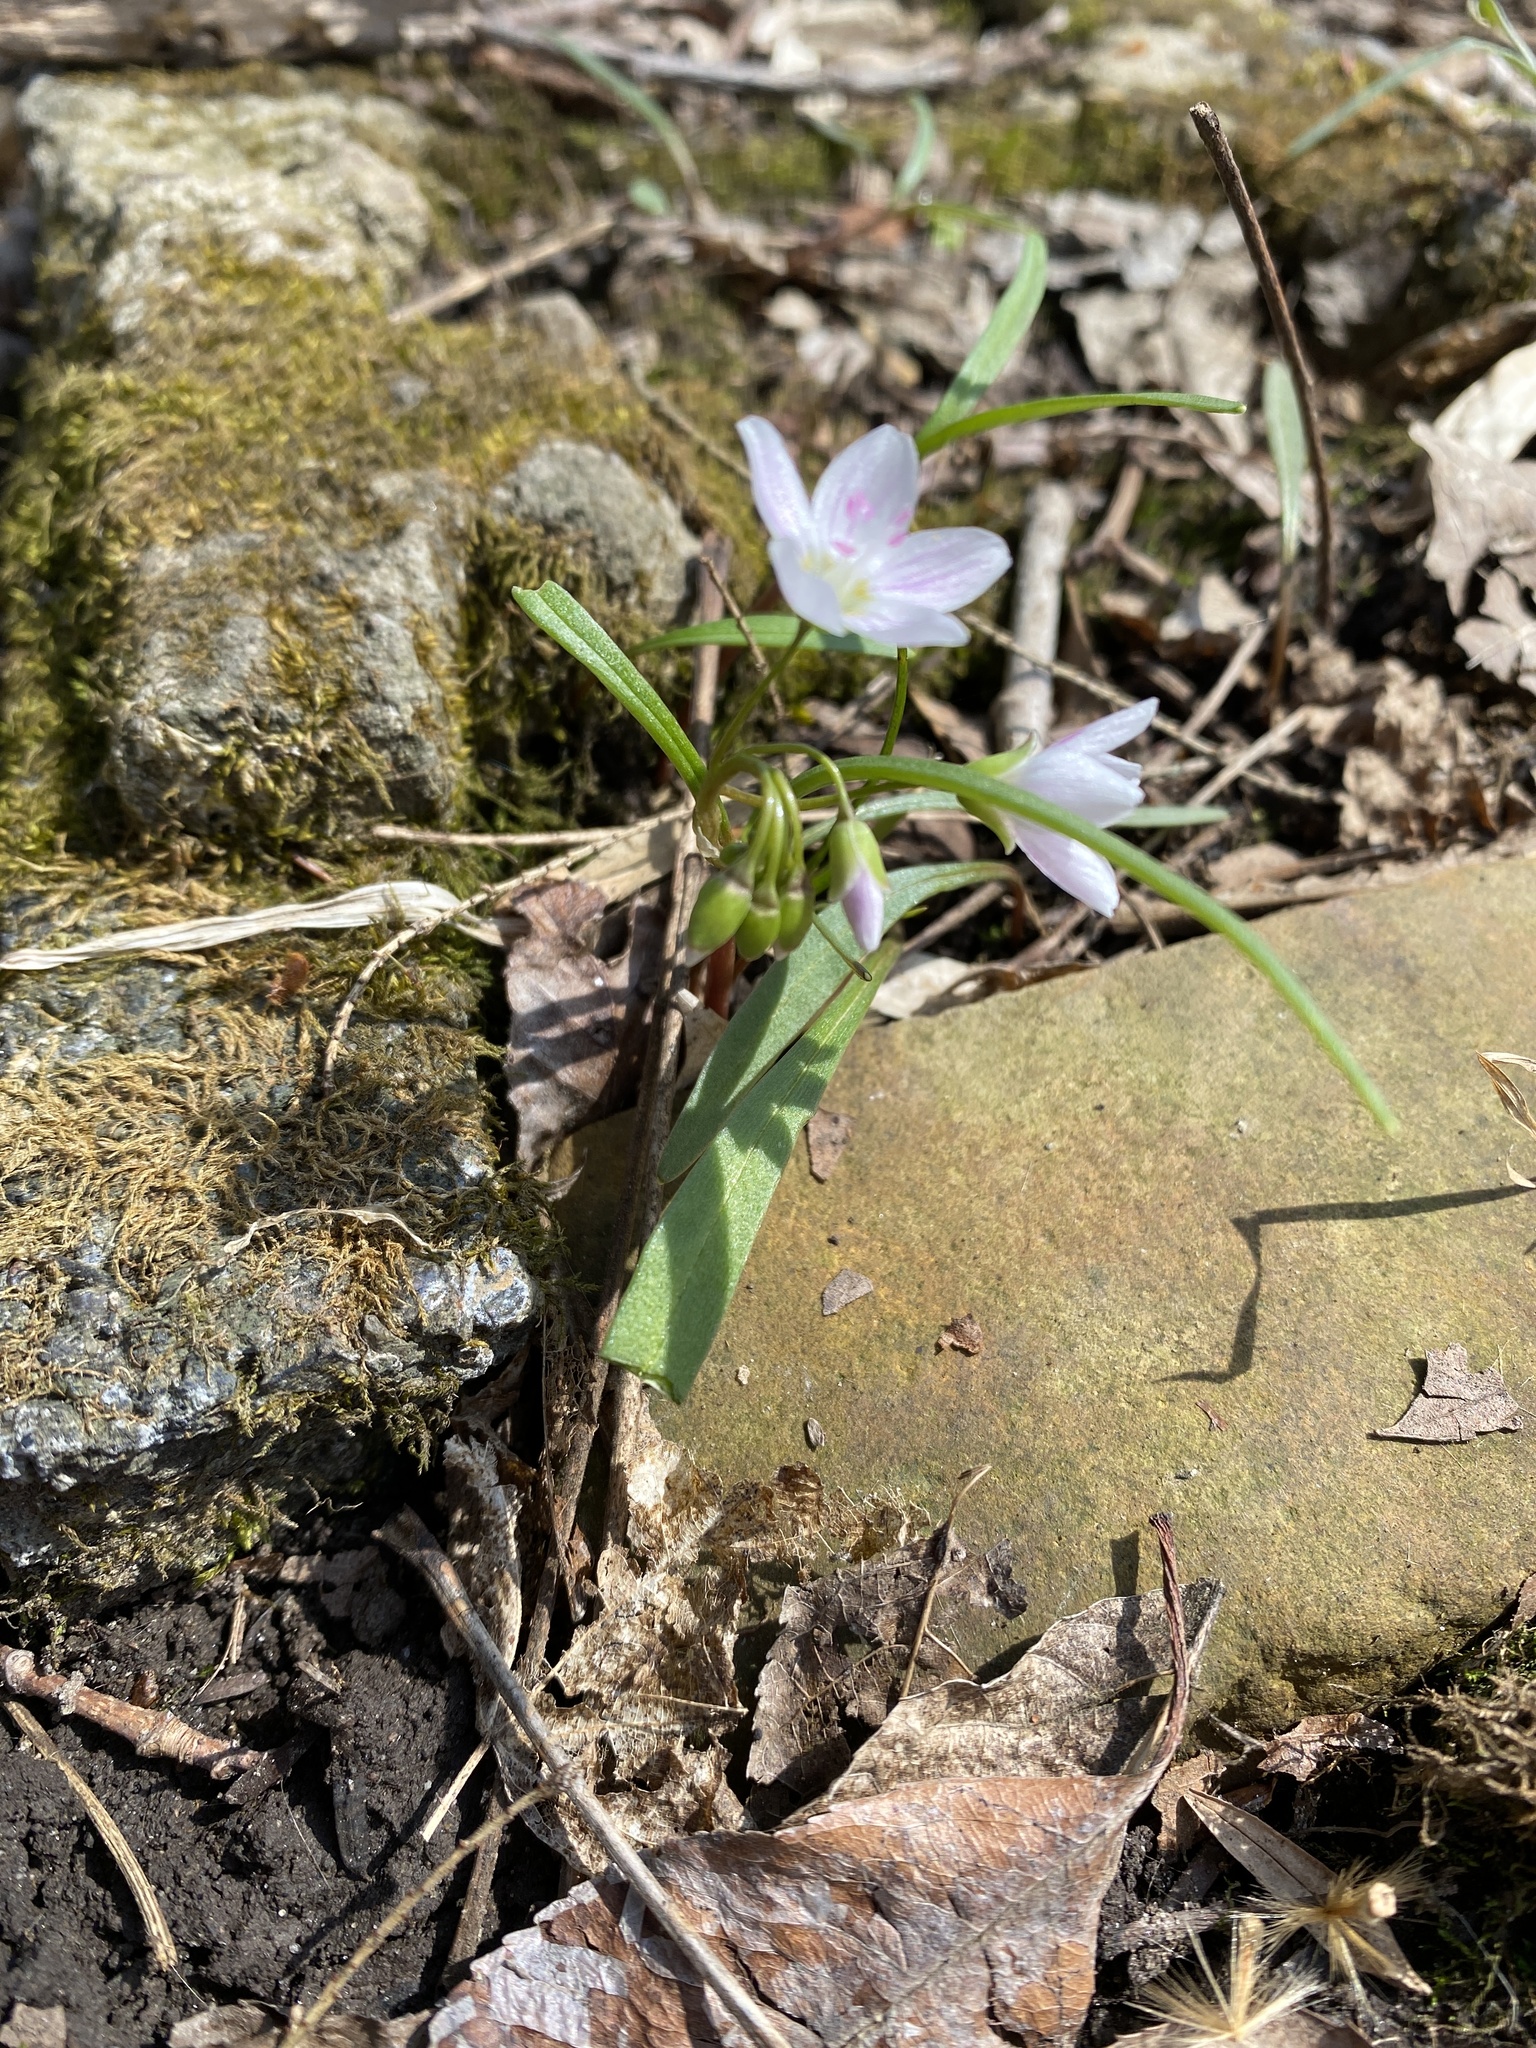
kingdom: Plantae
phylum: Tracheophyta
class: Magnoliopsida
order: Caryophyllales
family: Montiaceae
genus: Claytonia
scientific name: Claytonia virginica
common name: Virginia springbeauty
